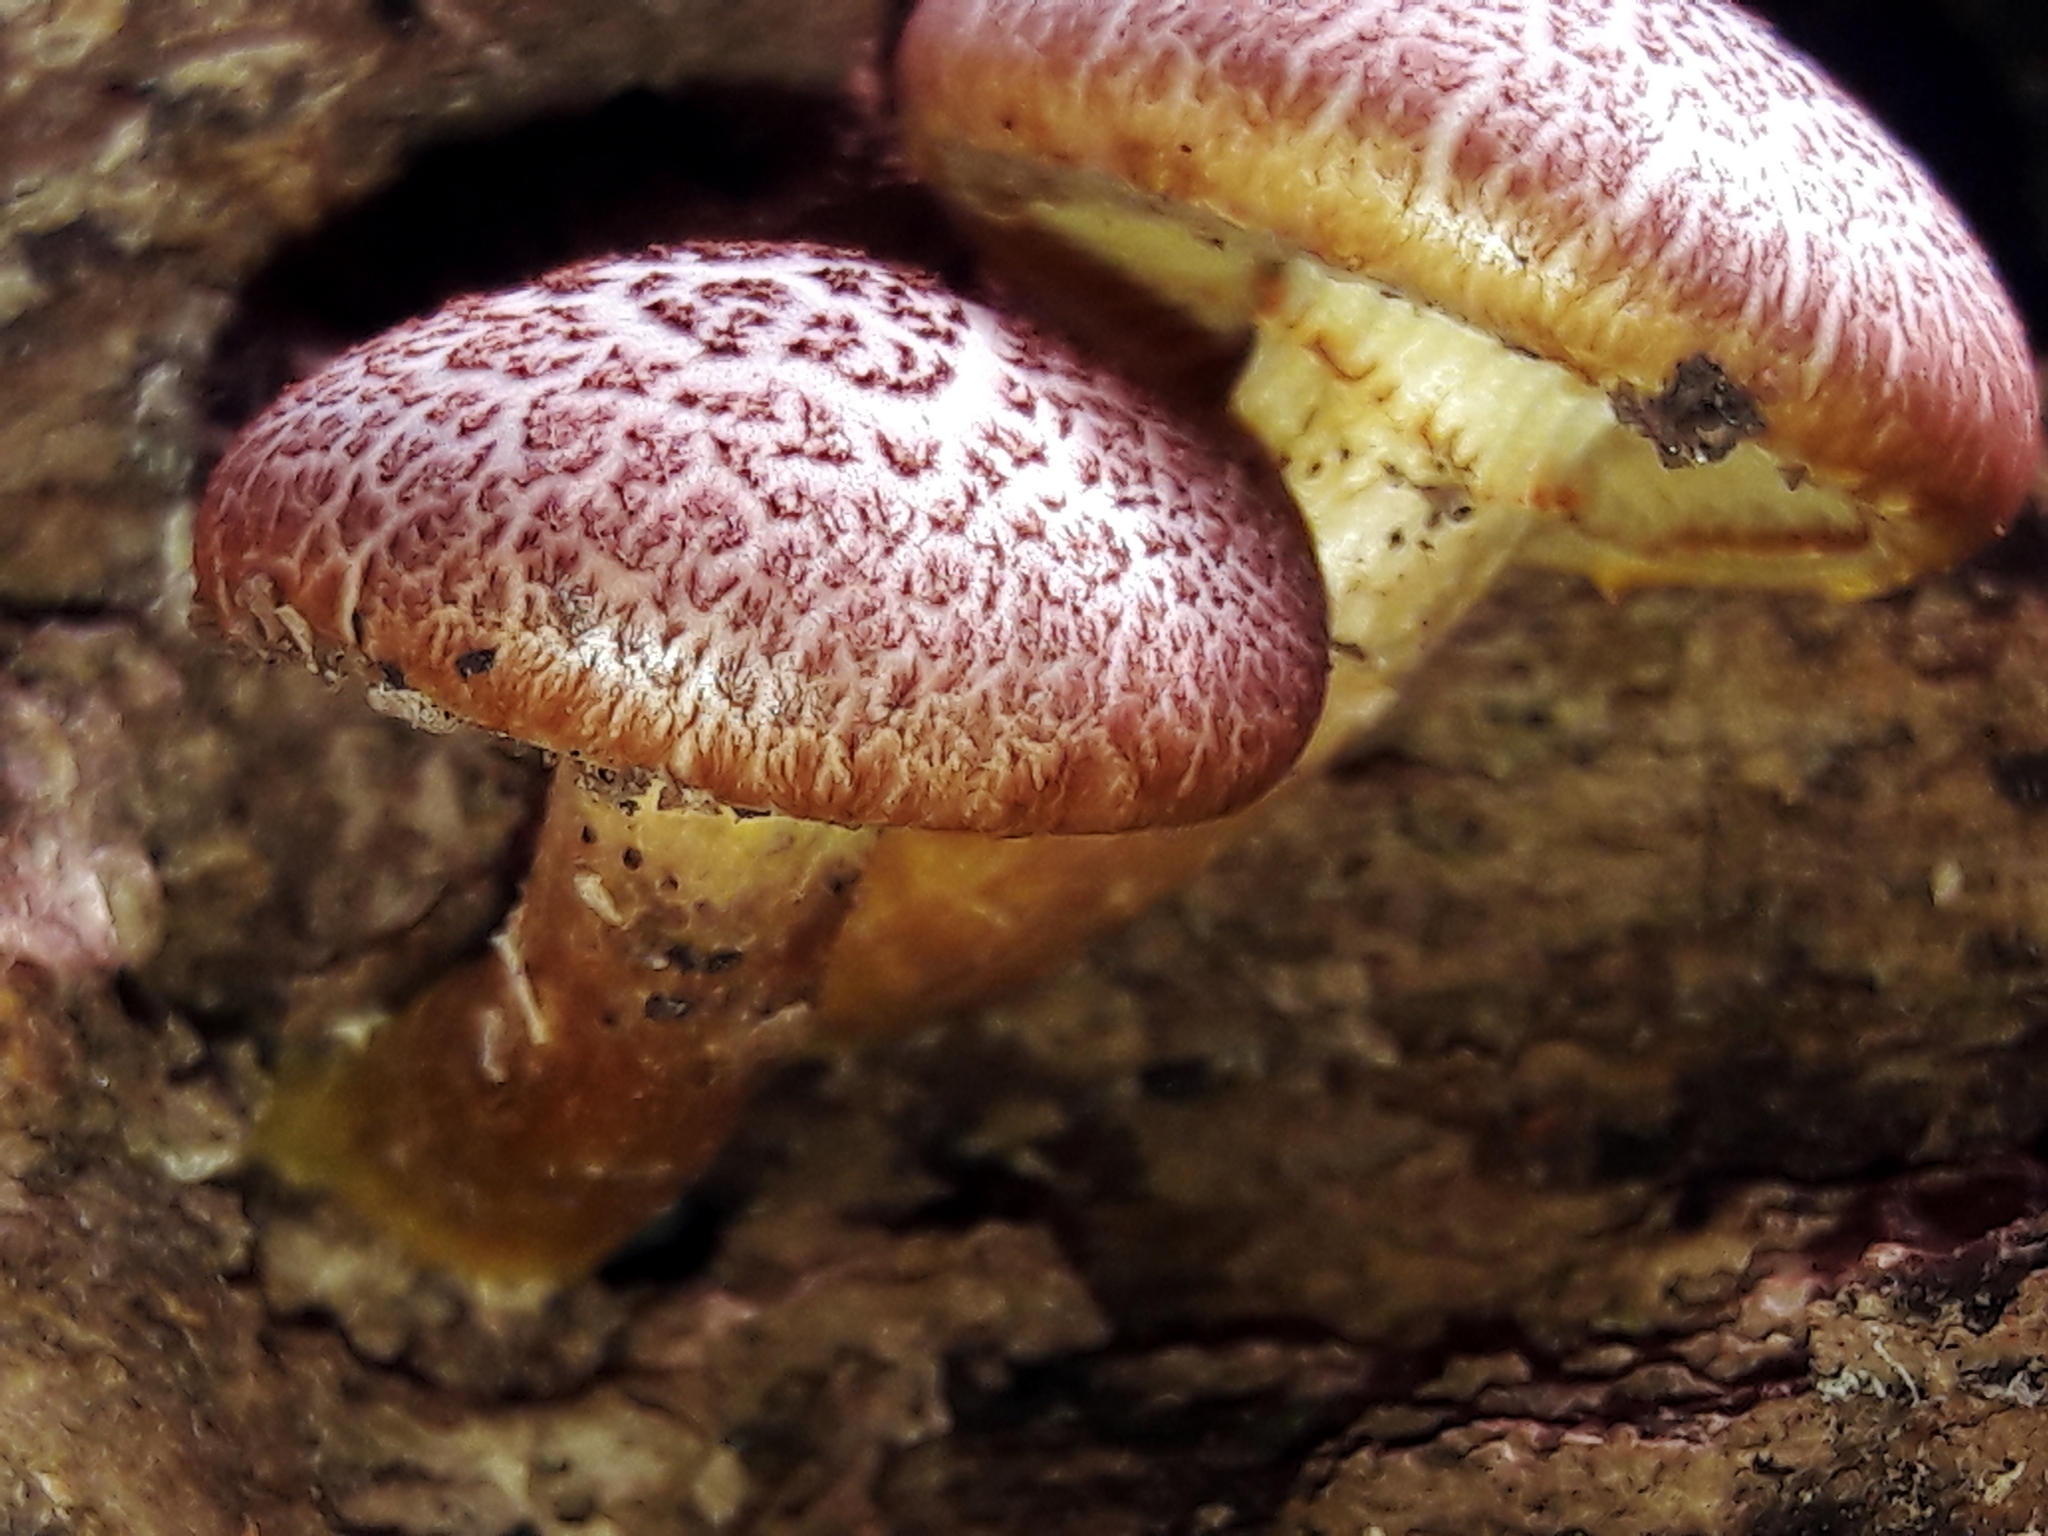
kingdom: Fungi
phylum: Basidiomycota
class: Agaricomycetes
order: Agaricales
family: Hymenogastraceae
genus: Gymnopilus
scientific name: Gymnopilus luteofolius
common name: Yellow-gilled gymnopilus
